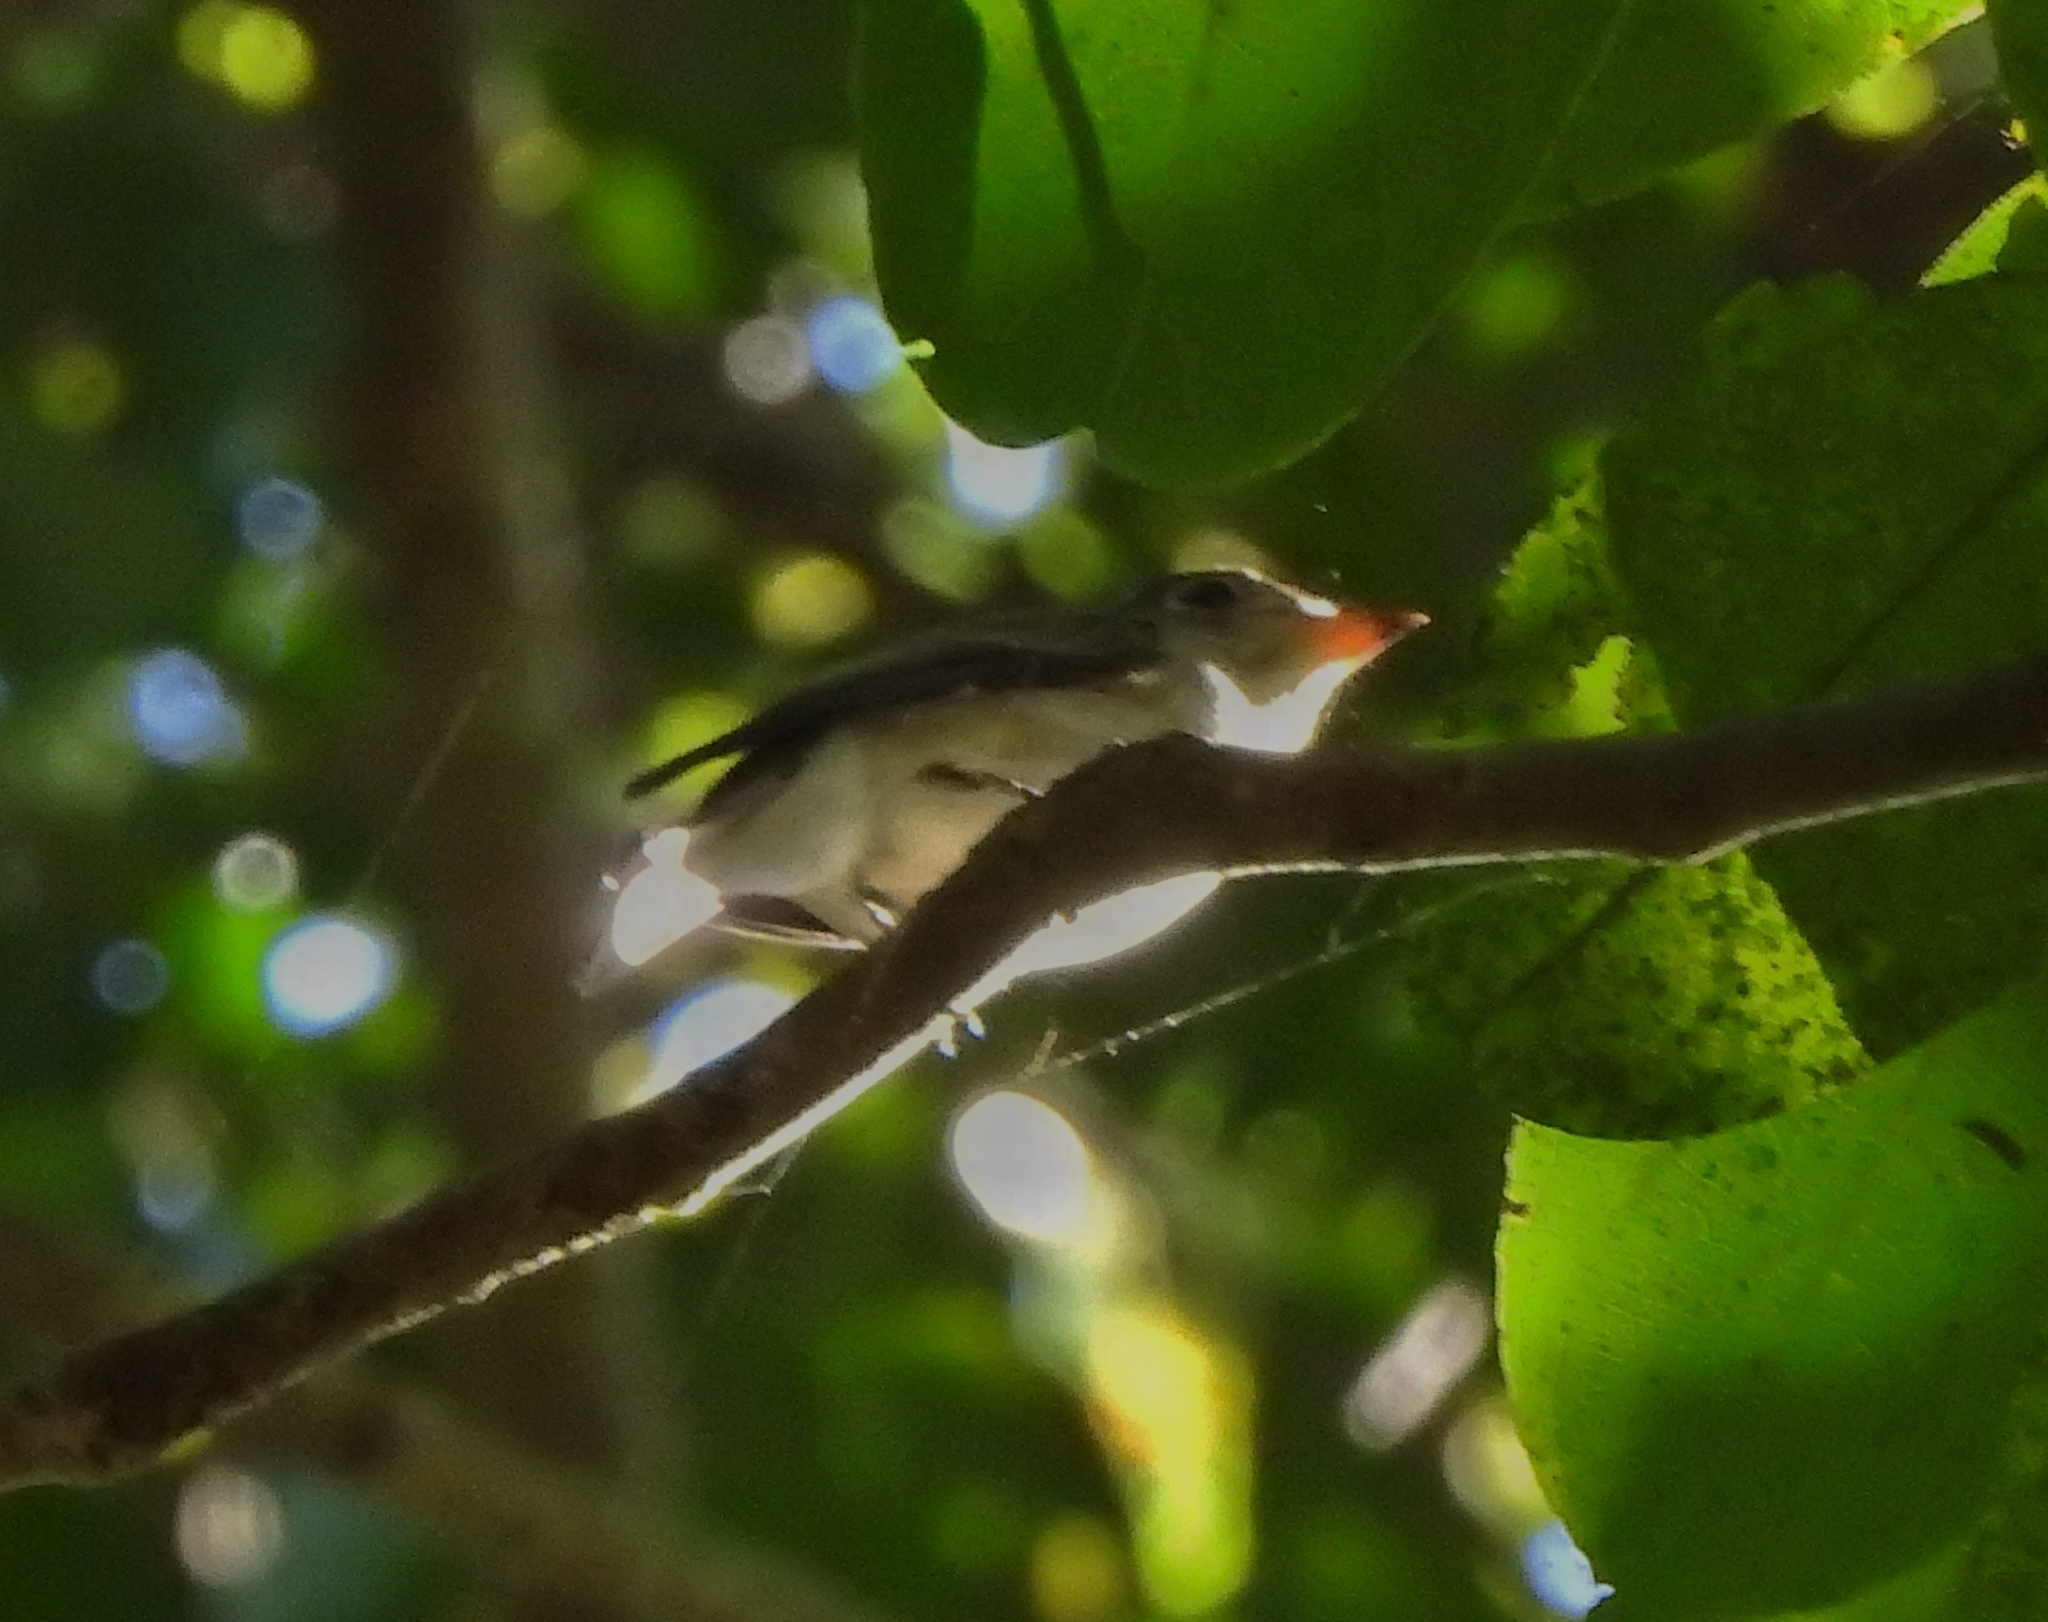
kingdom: Animalia
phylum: Chordata
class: Aves
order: Passeriformes
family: Muscicapidae
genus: Muscicapa
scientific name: Muscicapa latirostris
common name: Asian brown flycatcher
